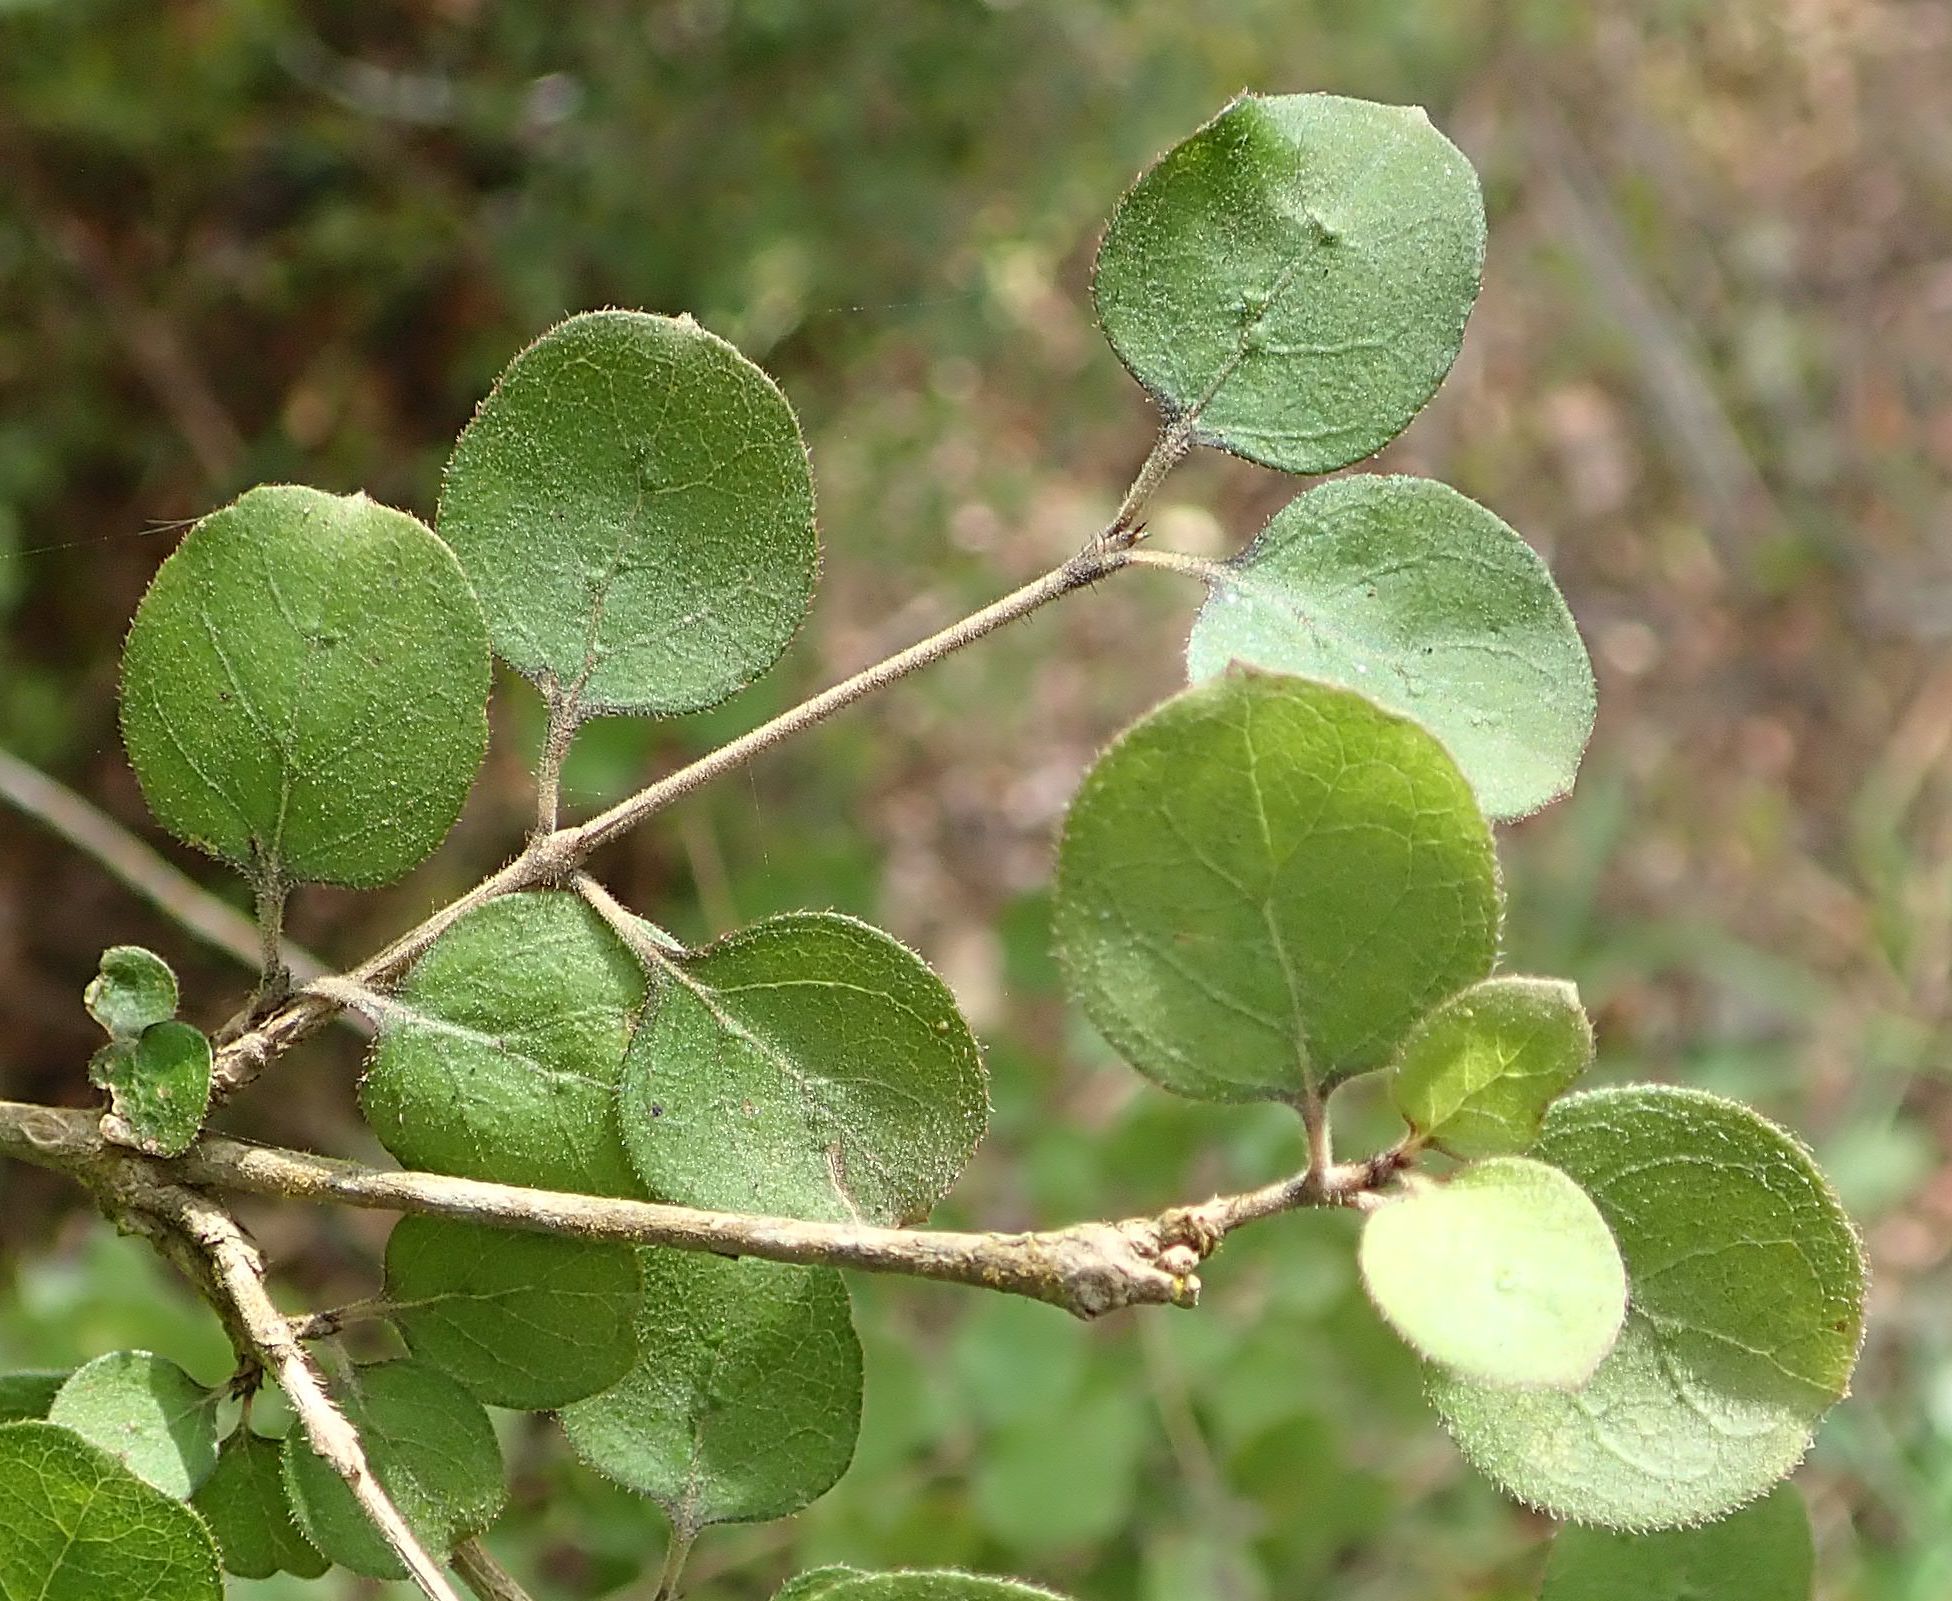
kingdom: Plantae
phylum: Tracheophyta
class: Magnoliopsida
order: Gentianales
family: Rubiaceae
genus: Coprosma
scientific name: Coprosma rotundifolia
